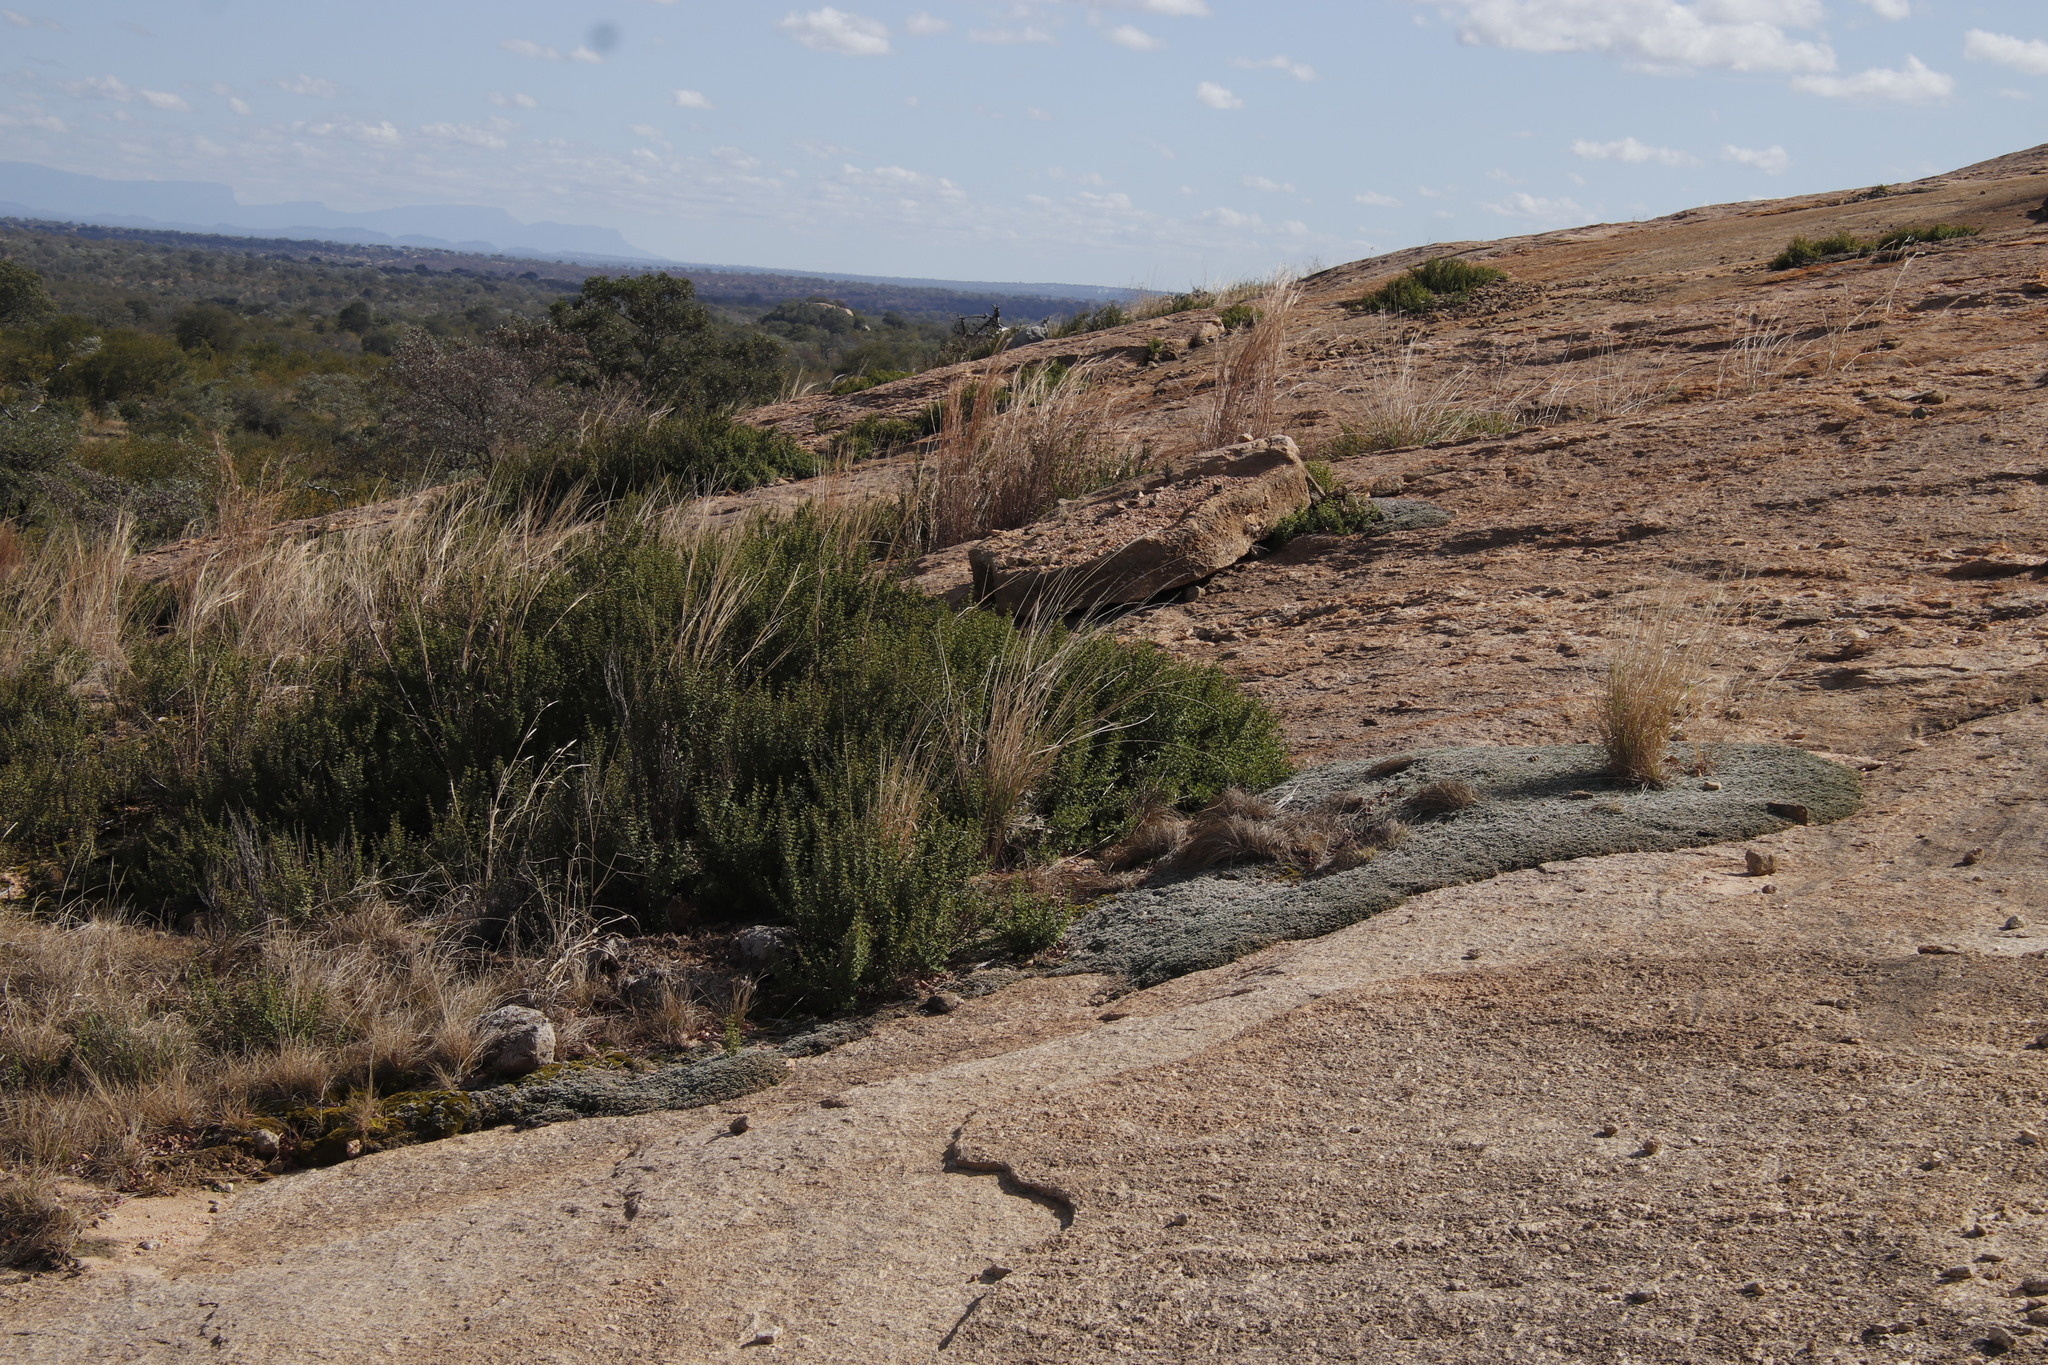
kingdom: Plantae
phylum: Tracheophyta
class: Lycopodiopsida
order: Selaginellales
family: Selaginellaceae
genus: Selaginella
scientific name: Selaginella dregei
